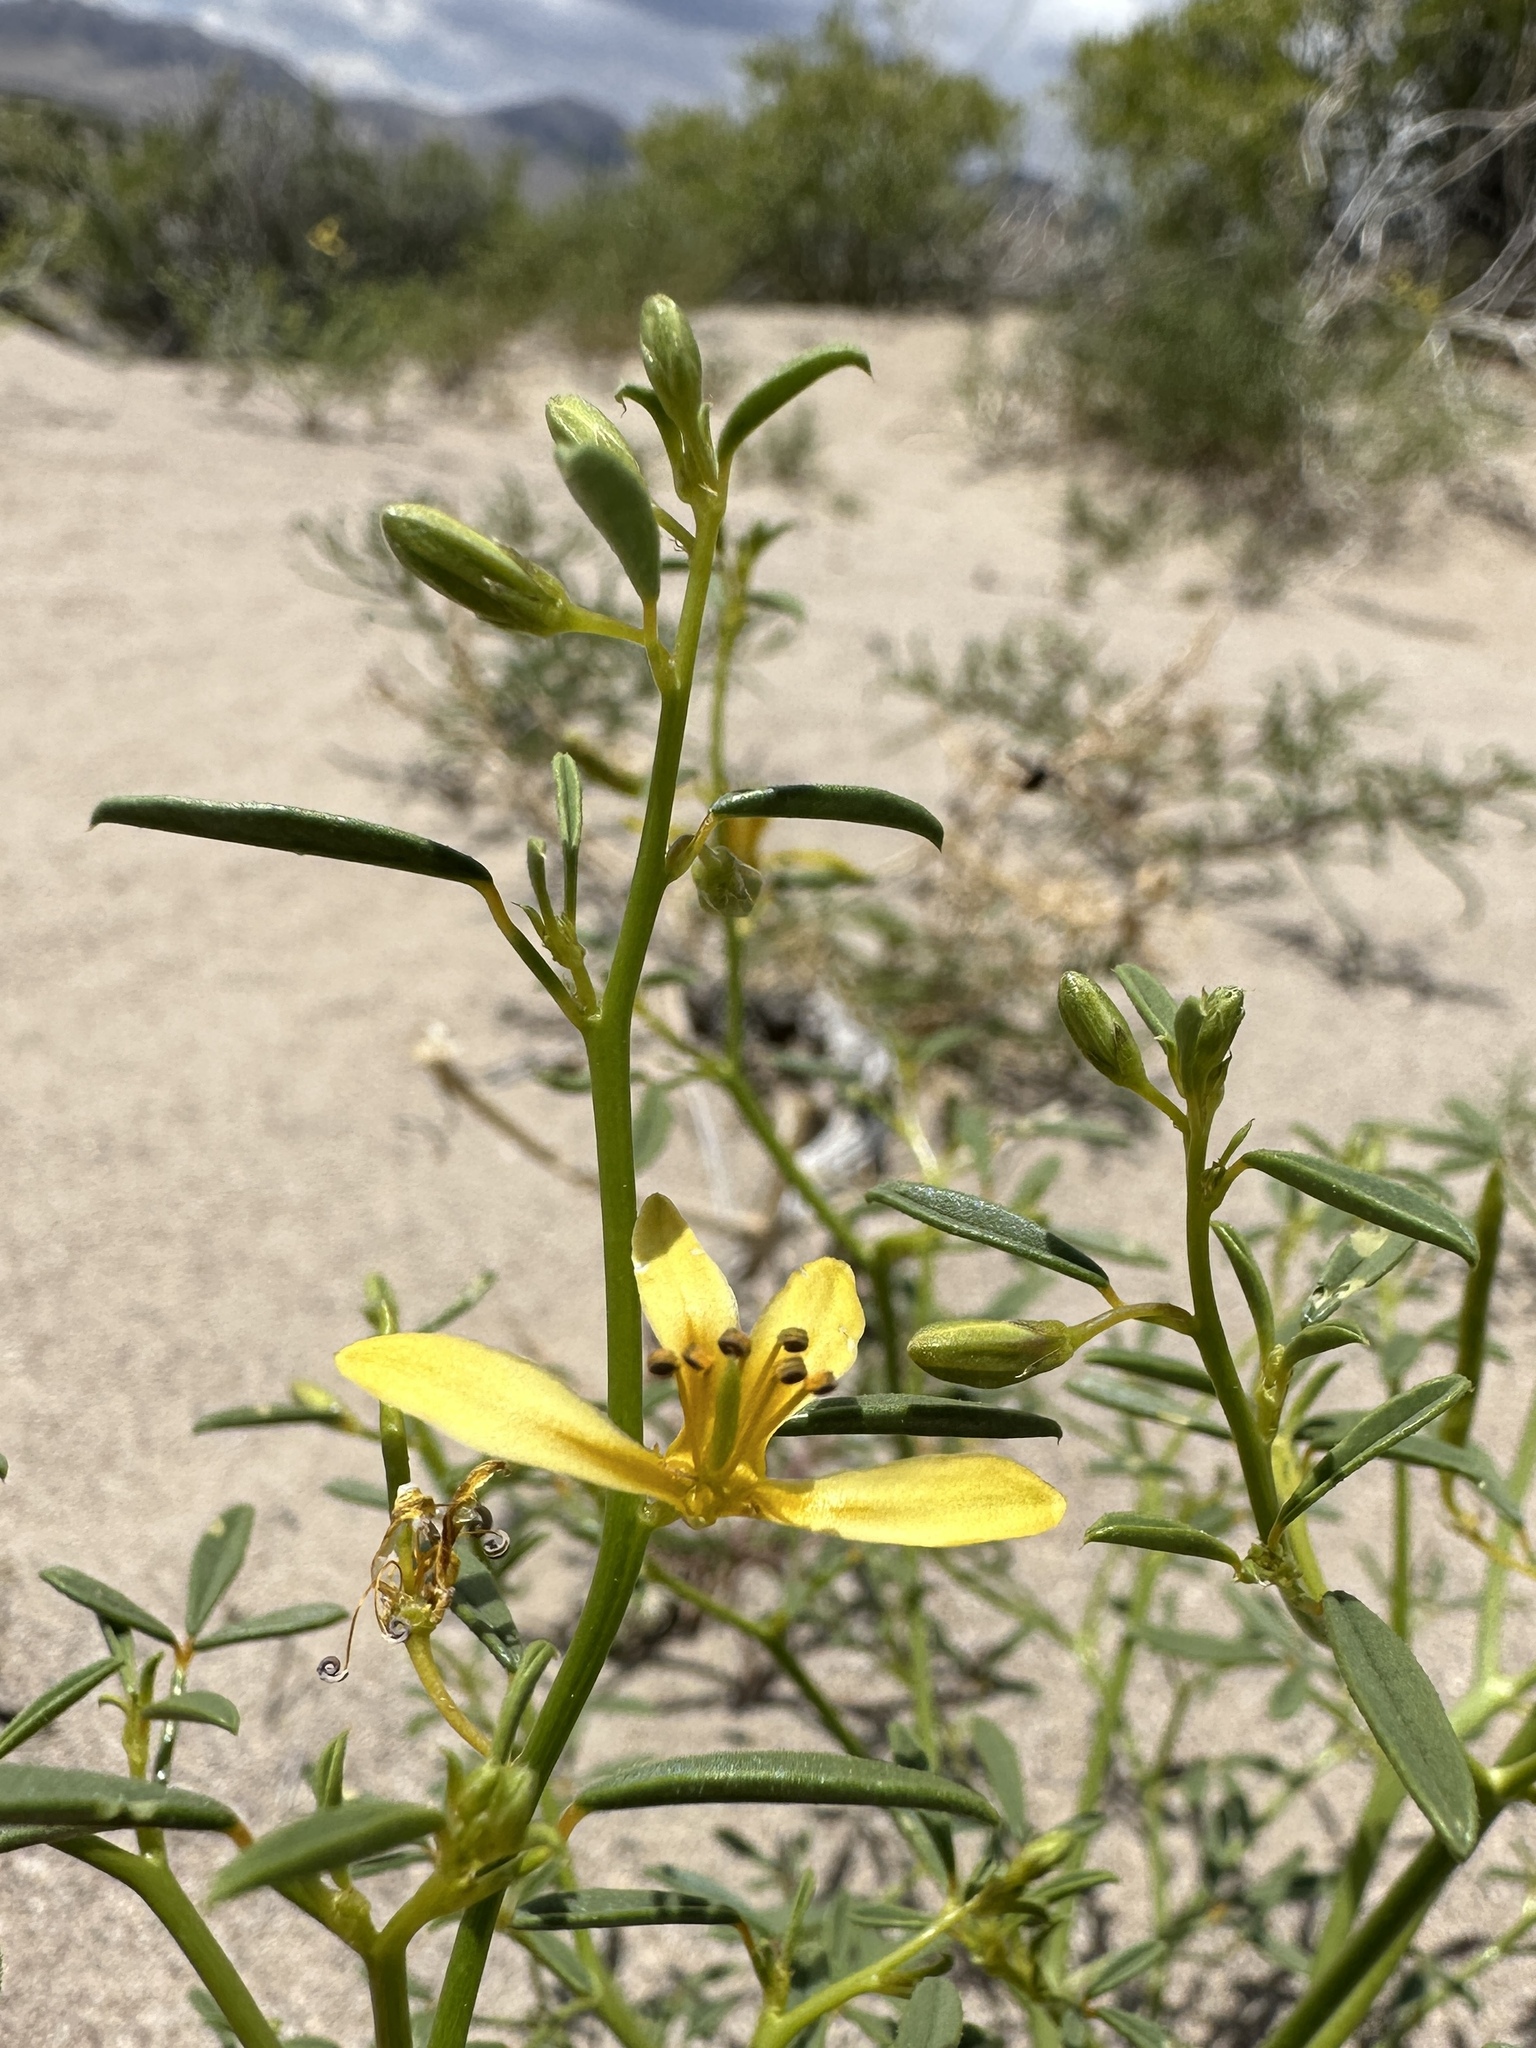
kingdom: Plantae
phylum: Tracheophyta
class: Magnoliopsida
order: Brassicales
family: Cleomaceae
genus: Cleomella
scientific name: Cleomella sparsifolia
